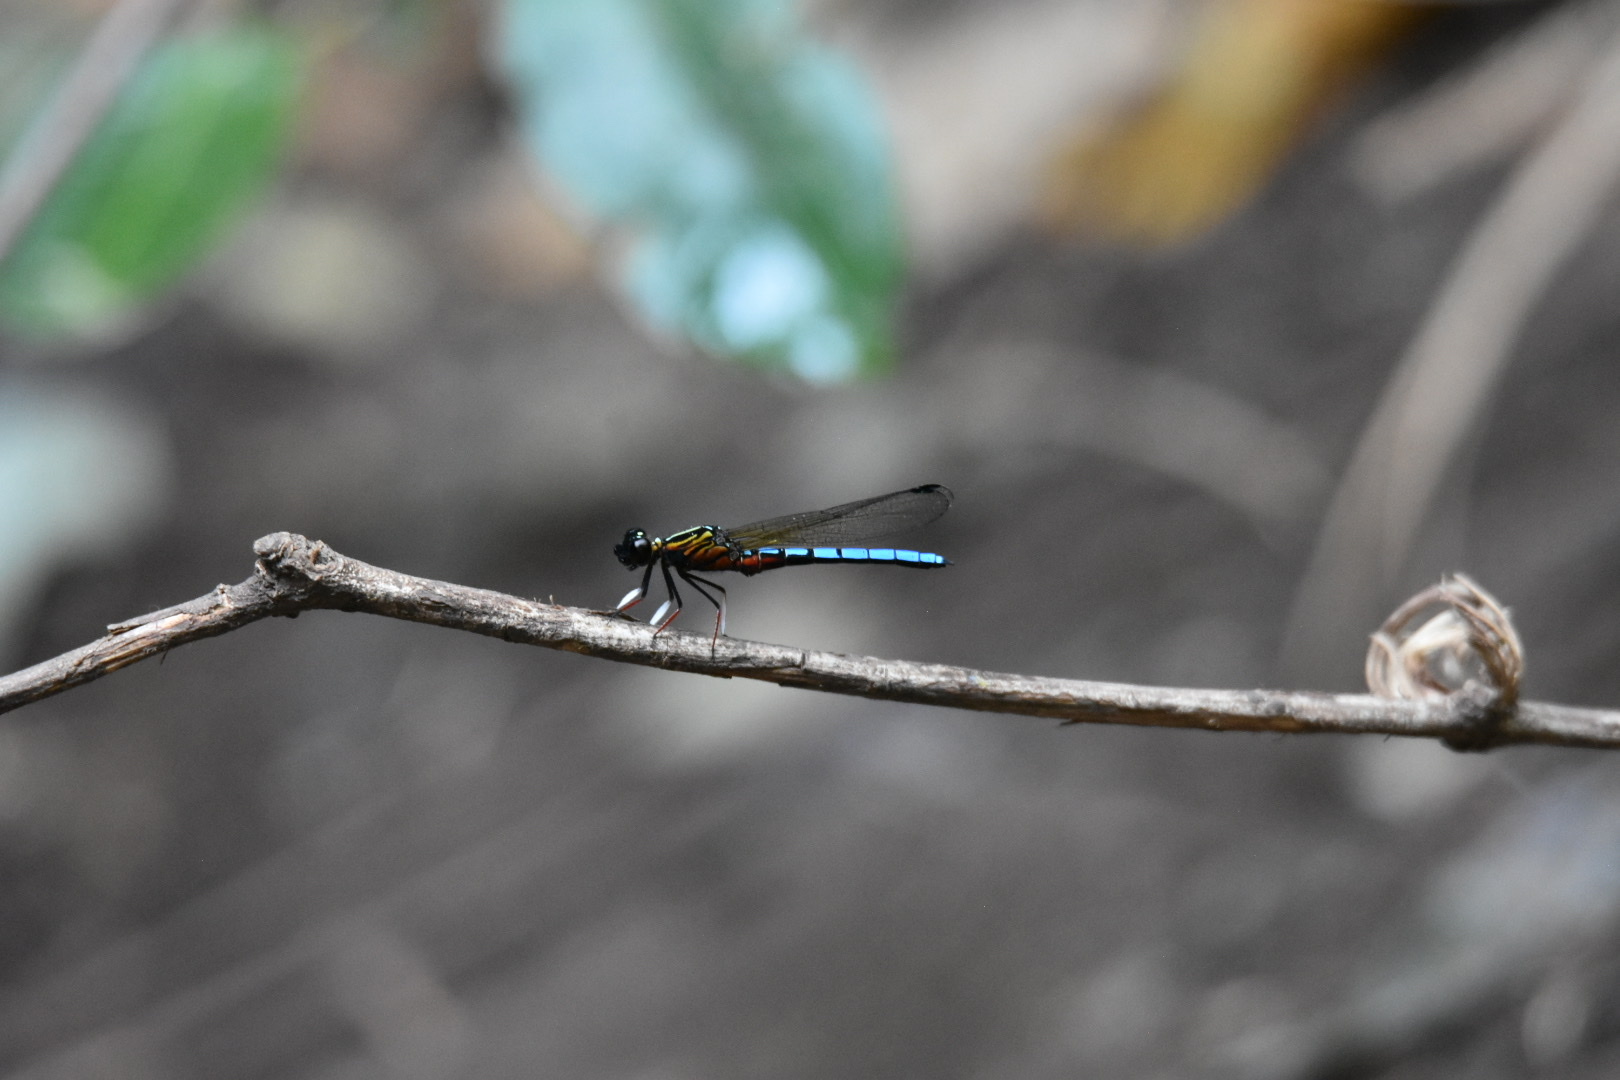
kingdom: Animalia
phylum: Arthropoda
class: Insecta
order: Odonata
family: Chlorocyphidae
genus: Platycypha
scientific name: Platycypha caligata
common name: Dancing jewel
